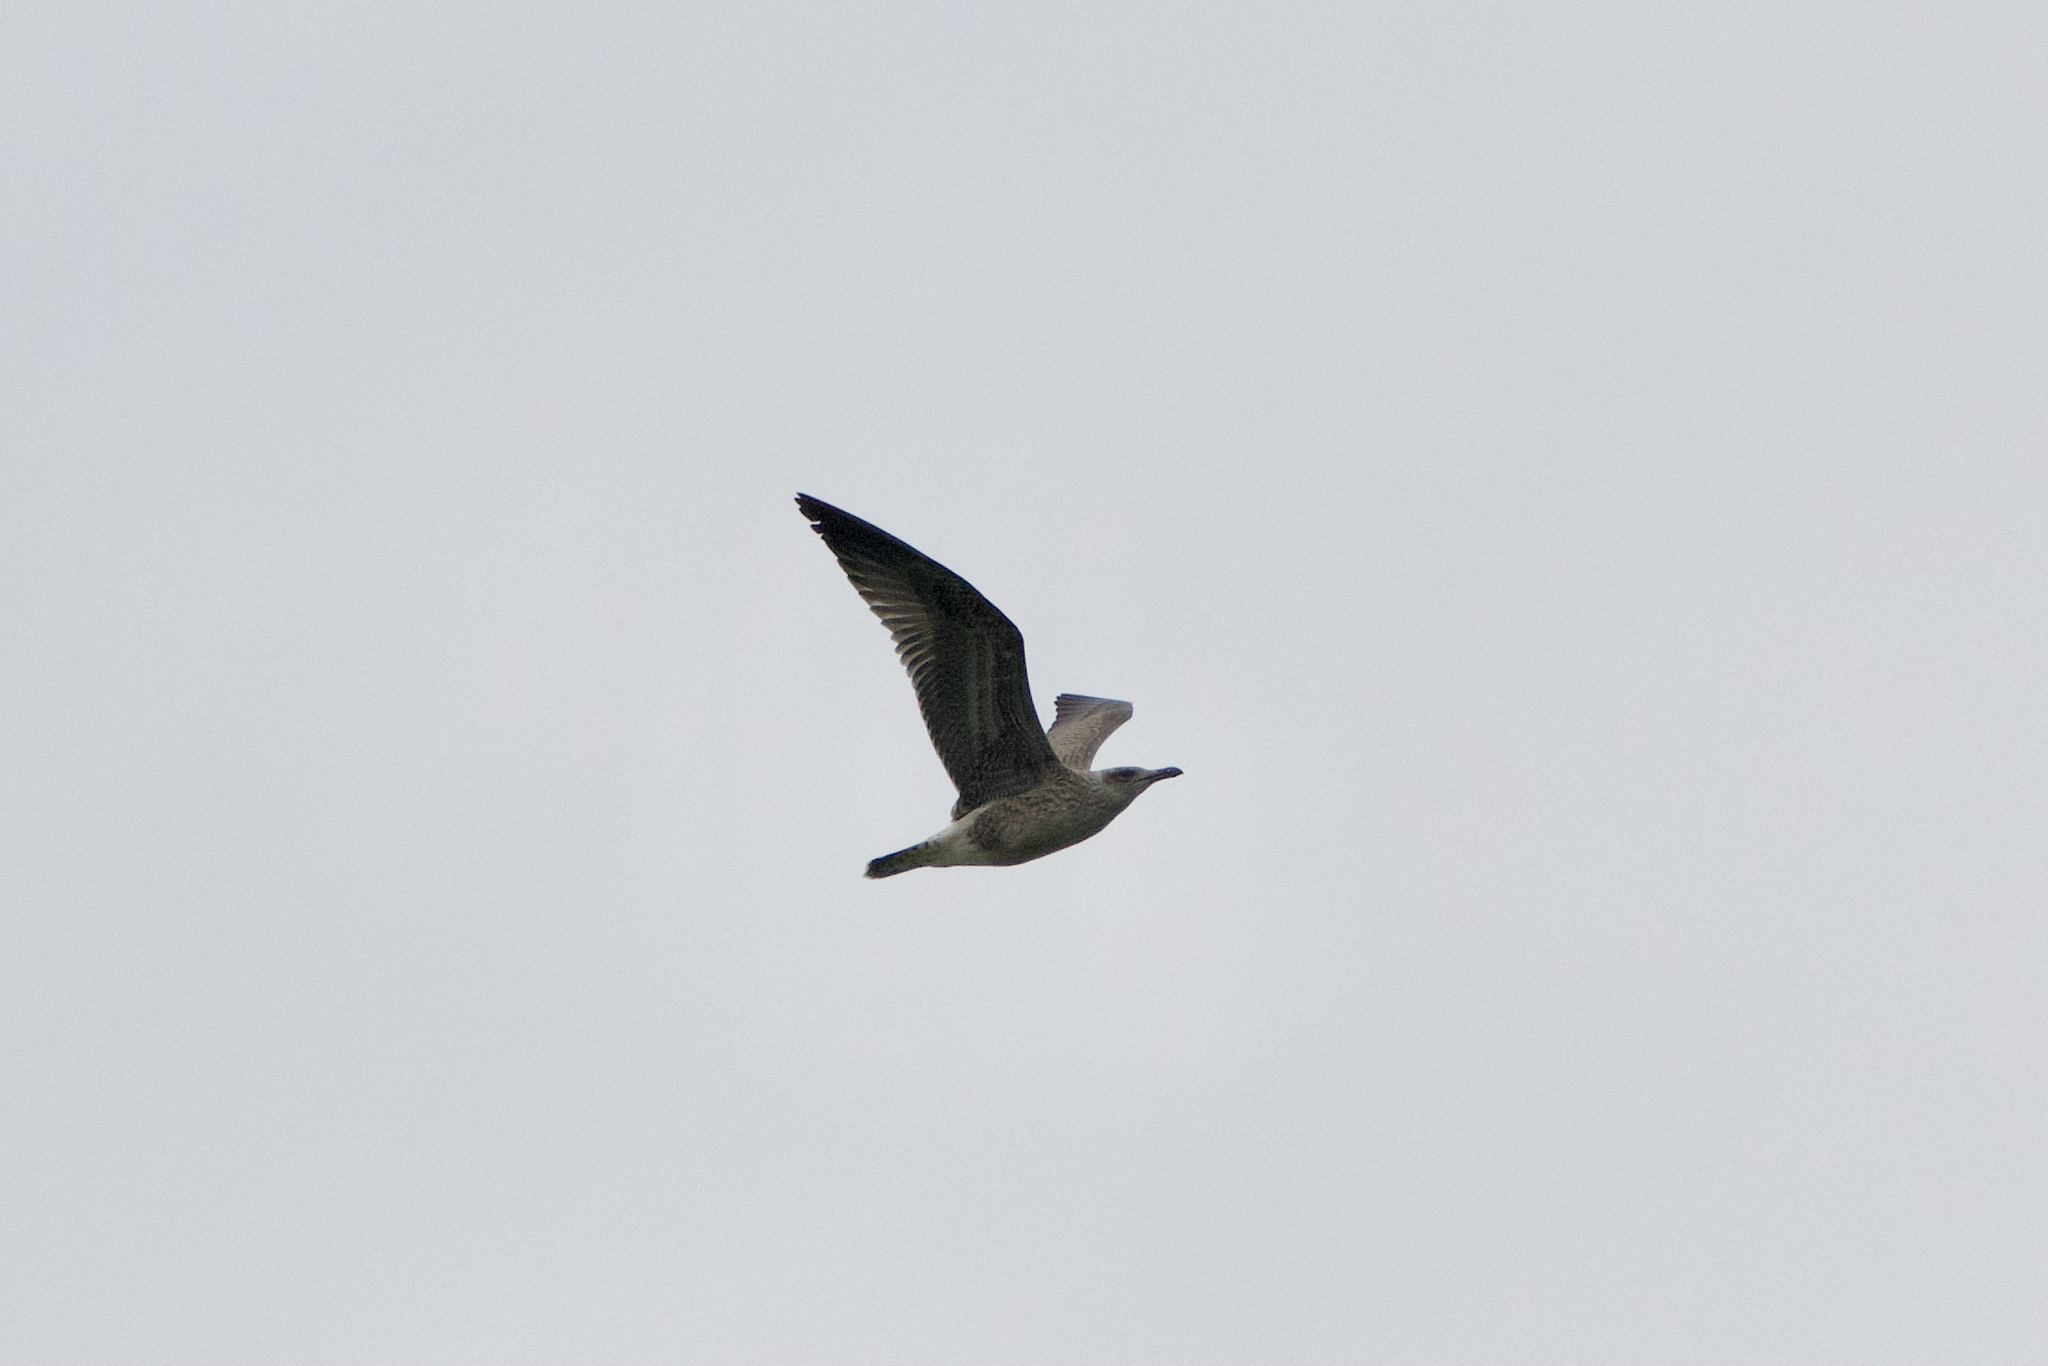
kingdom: Animalia
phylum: Chordata
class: Aves
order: Charadriiformes
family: Laridae
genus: Larus
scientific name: Larus michahellis
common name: Yellow-legged gull
